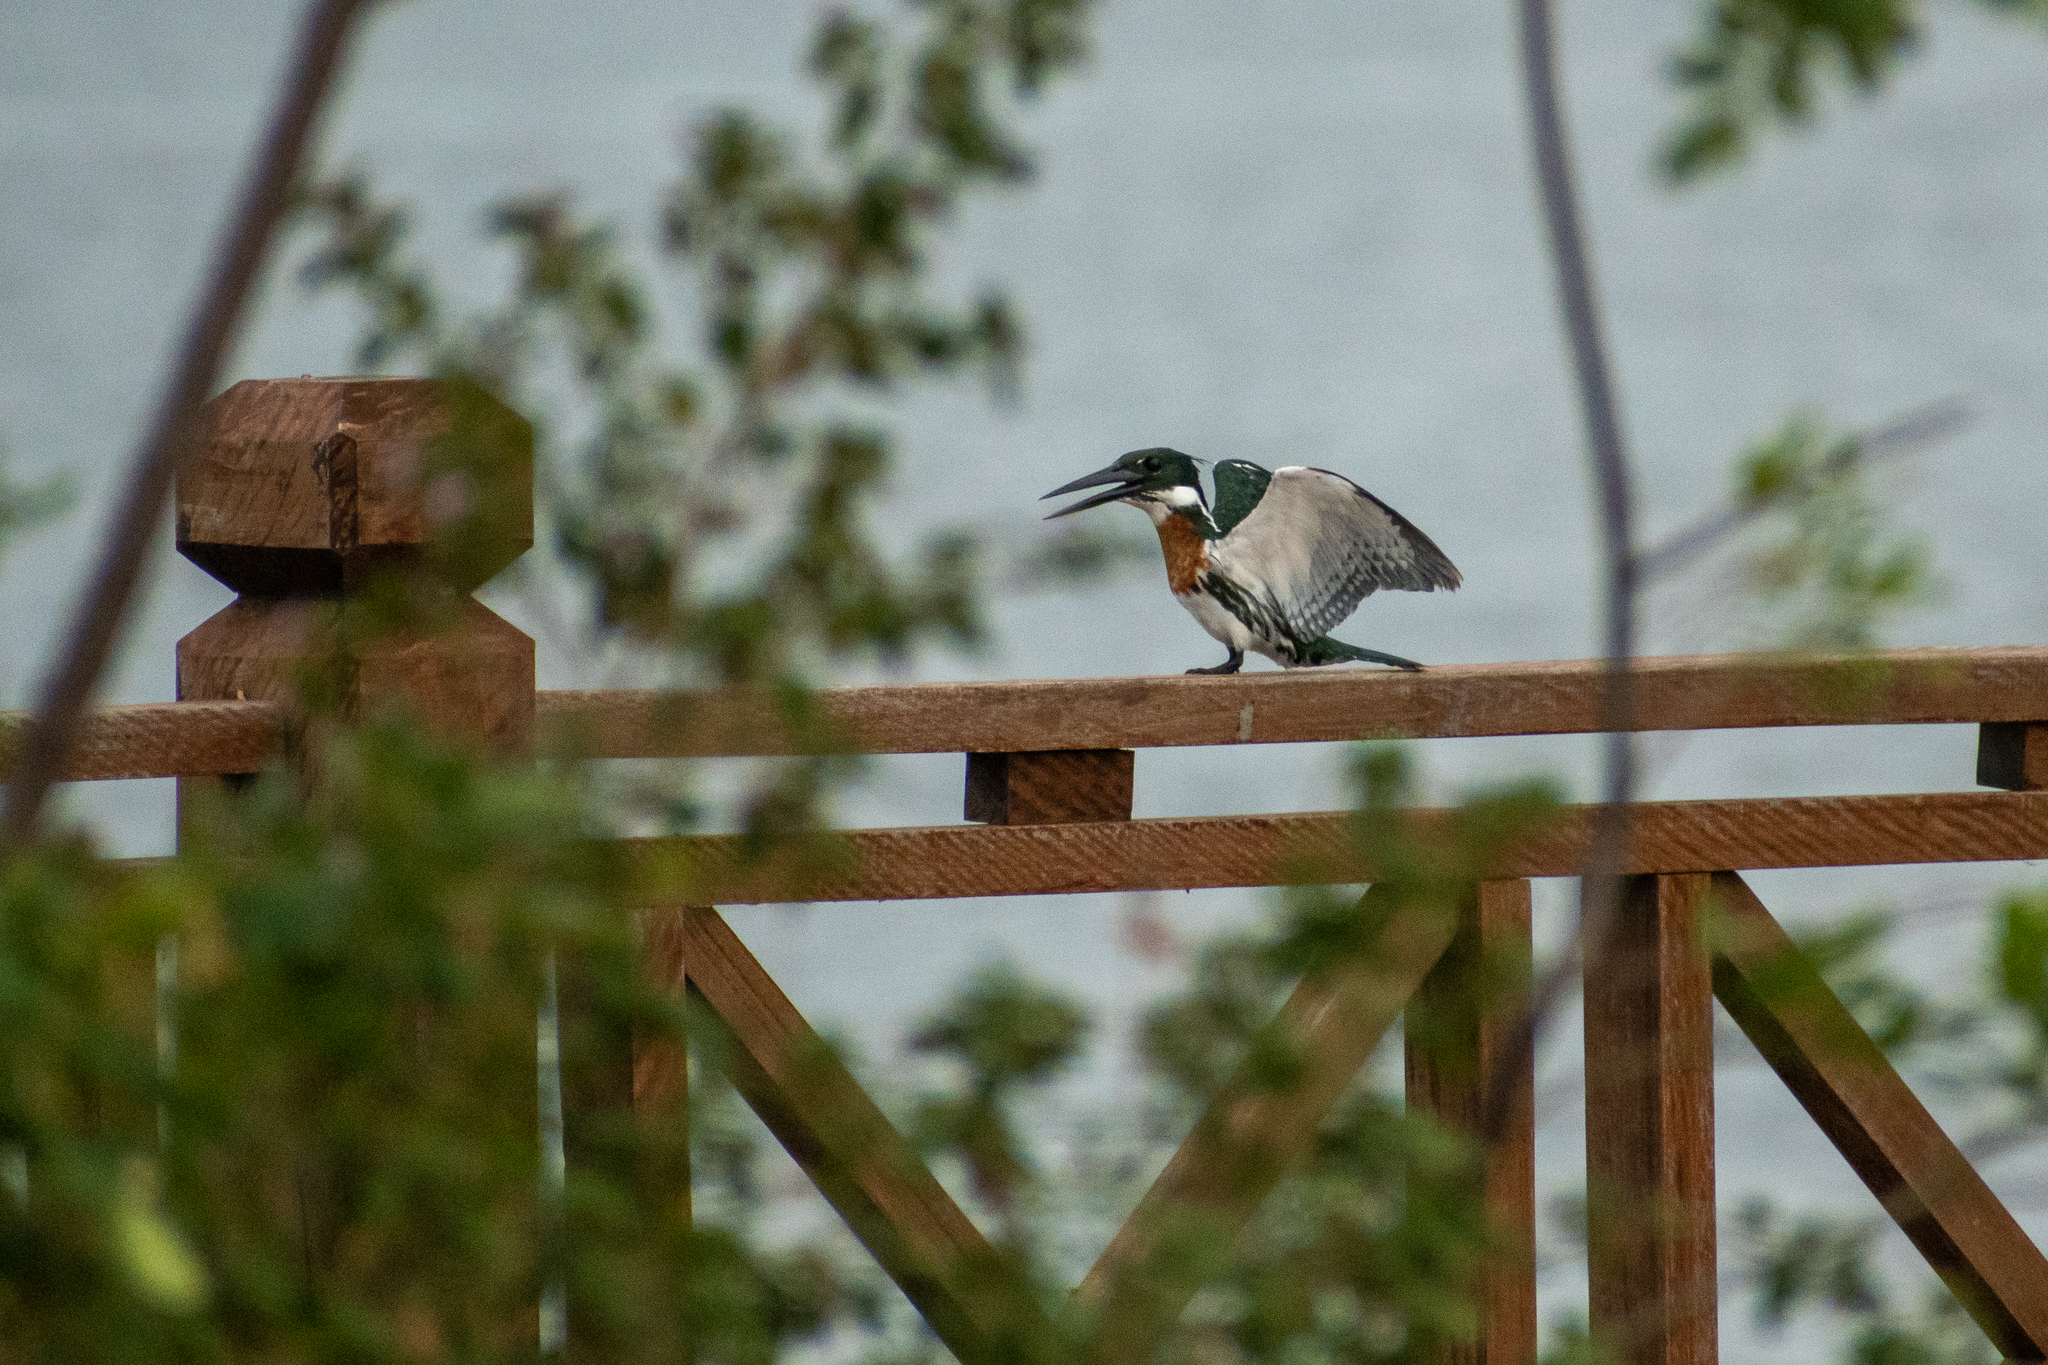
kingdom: Animalia
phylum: Chordata
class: Aves
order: Coraciiformes
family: Alcedinidae
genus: Chloroceryle
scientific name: Chloroceryle amazona
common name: Amazon kingfisher
